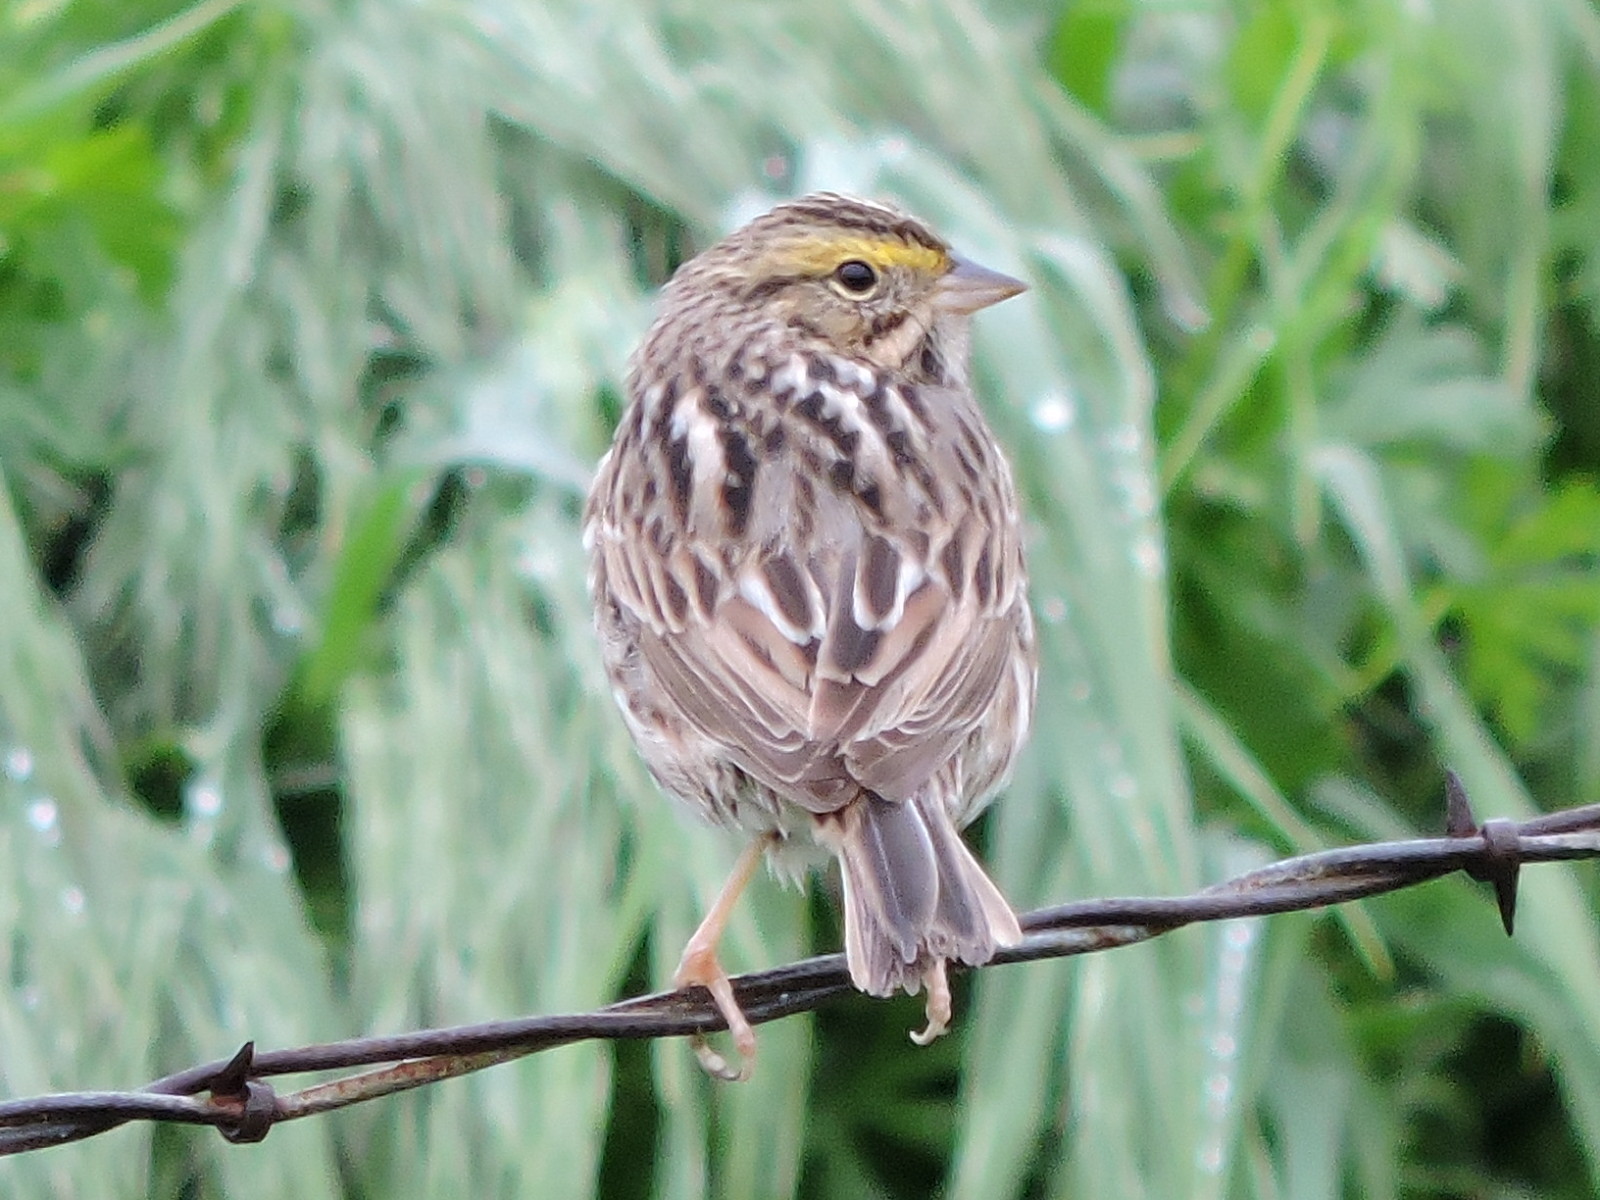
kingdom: Animalia
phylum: Chordata
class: Aves
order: Passeriformes
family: Passerellidae
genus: Passerculus
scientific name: Passerculus sandwichensis
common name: Savannah sparrow
